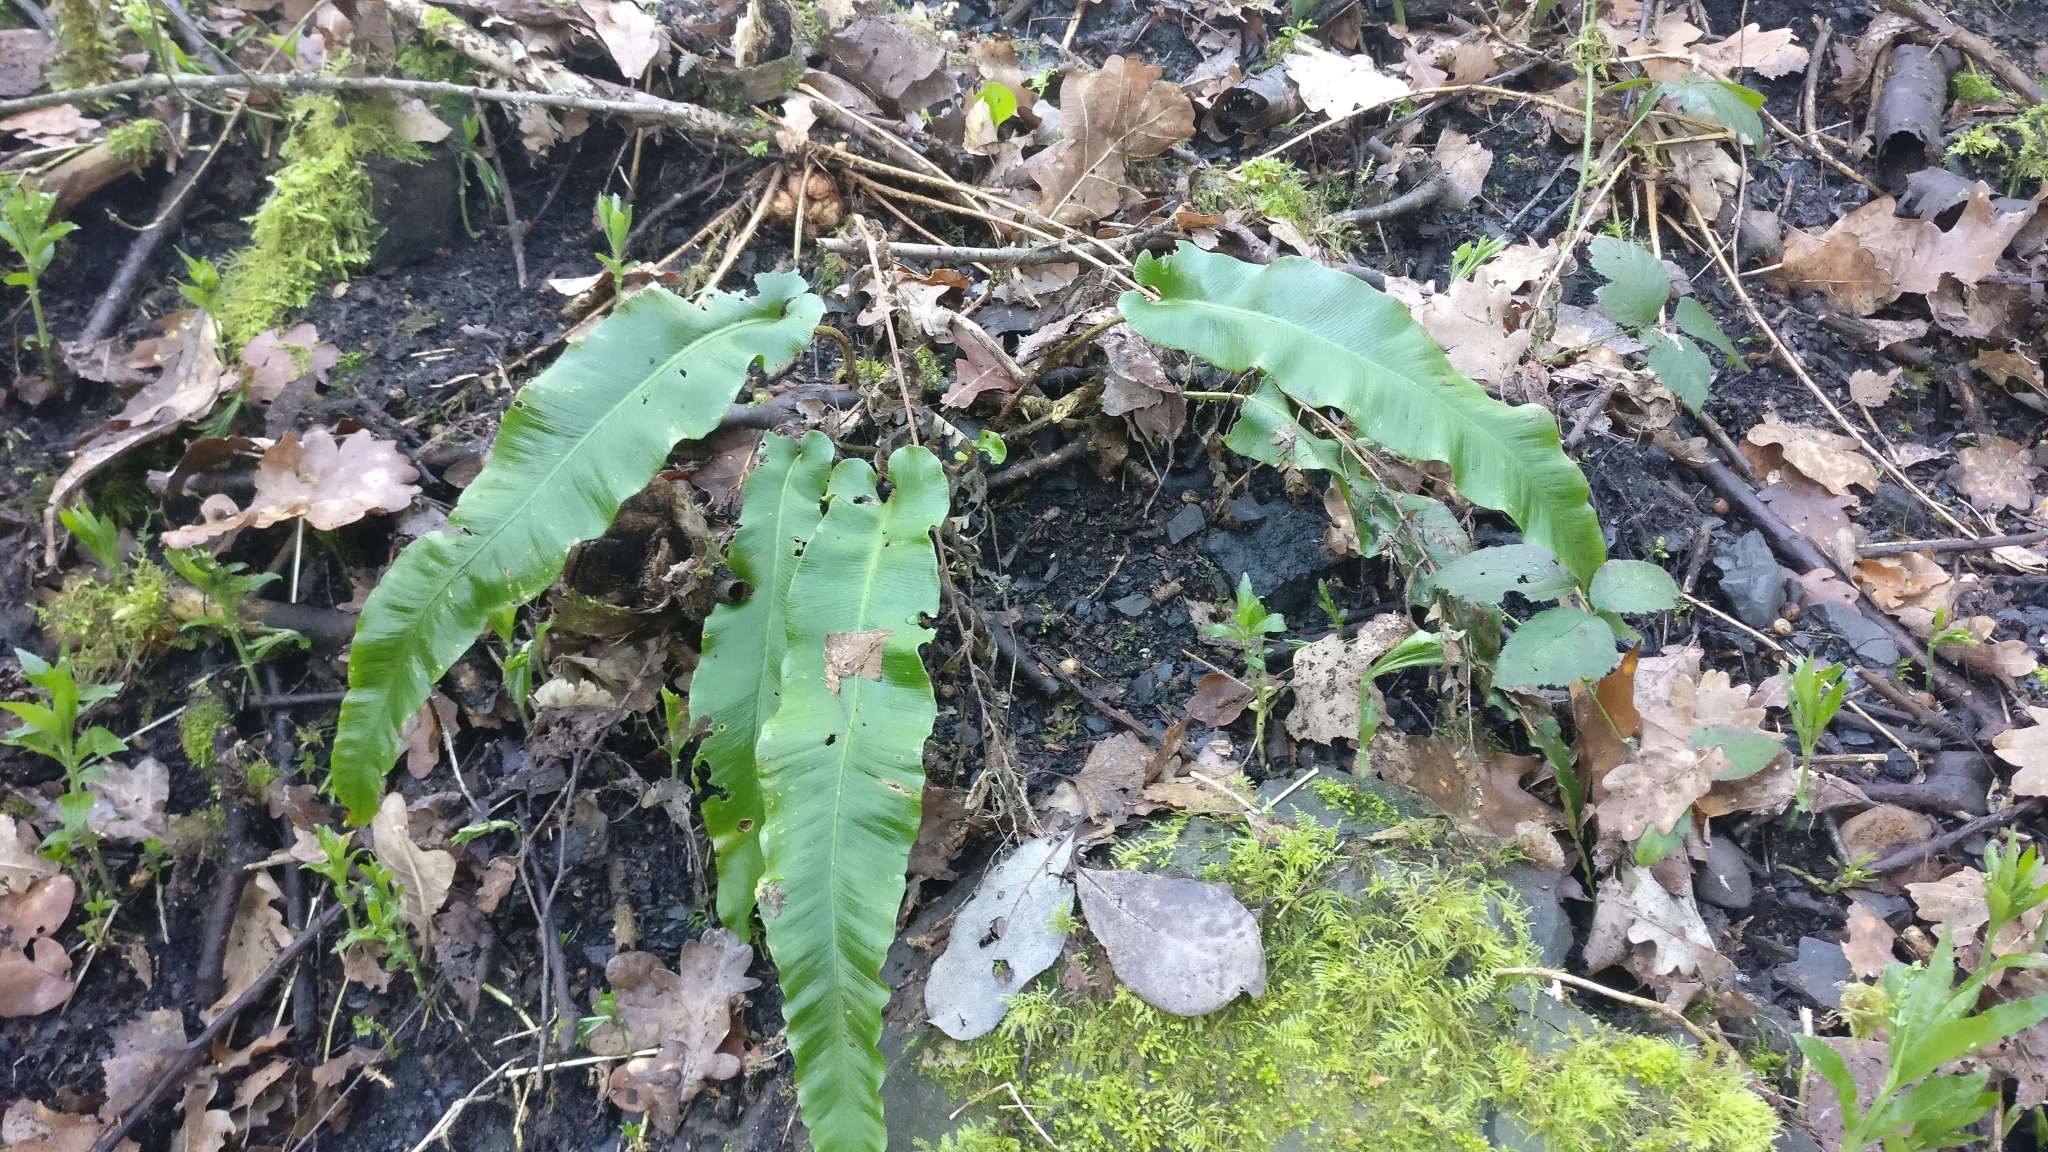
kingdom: Plantae
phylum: Tracheophyta
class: Polypodiopsida
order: Polypodiales
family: Aspleniaceae
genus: Asplenium
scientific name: Asplenium scolopendrium
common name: Hart's-tongue fern
